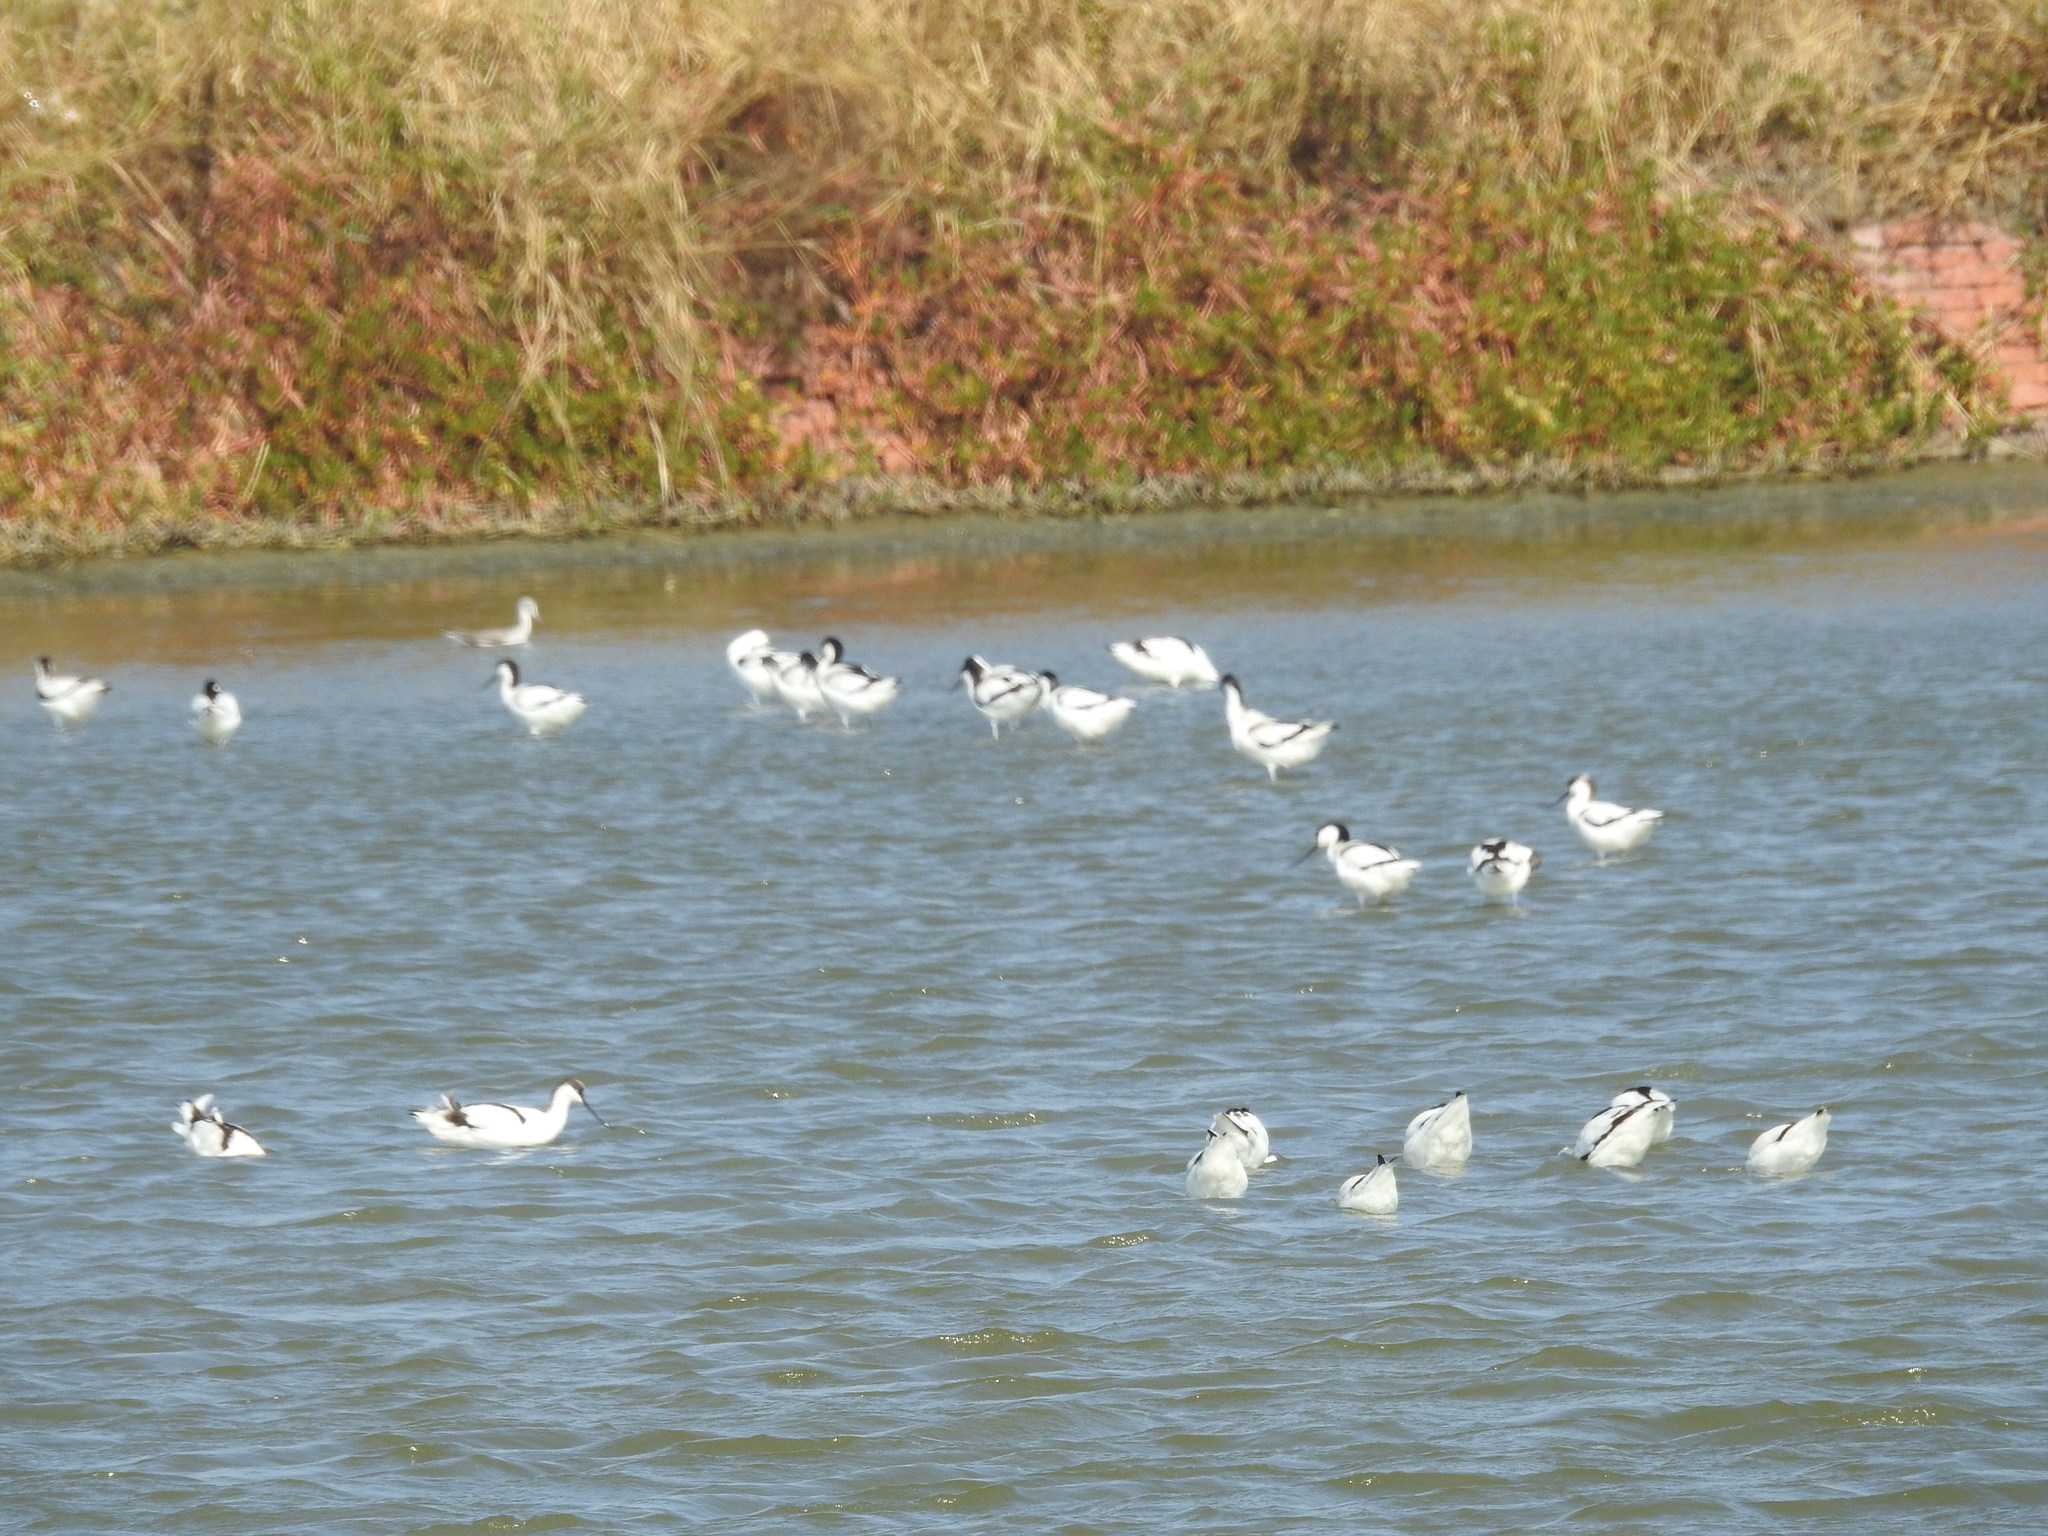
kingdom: Animalia
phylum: Chordata
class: Aves
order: Charadriiformes
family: Recurvirostridae
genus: Recurvirostra
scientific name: Recurvirostra avosetta
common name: Pied avocet
